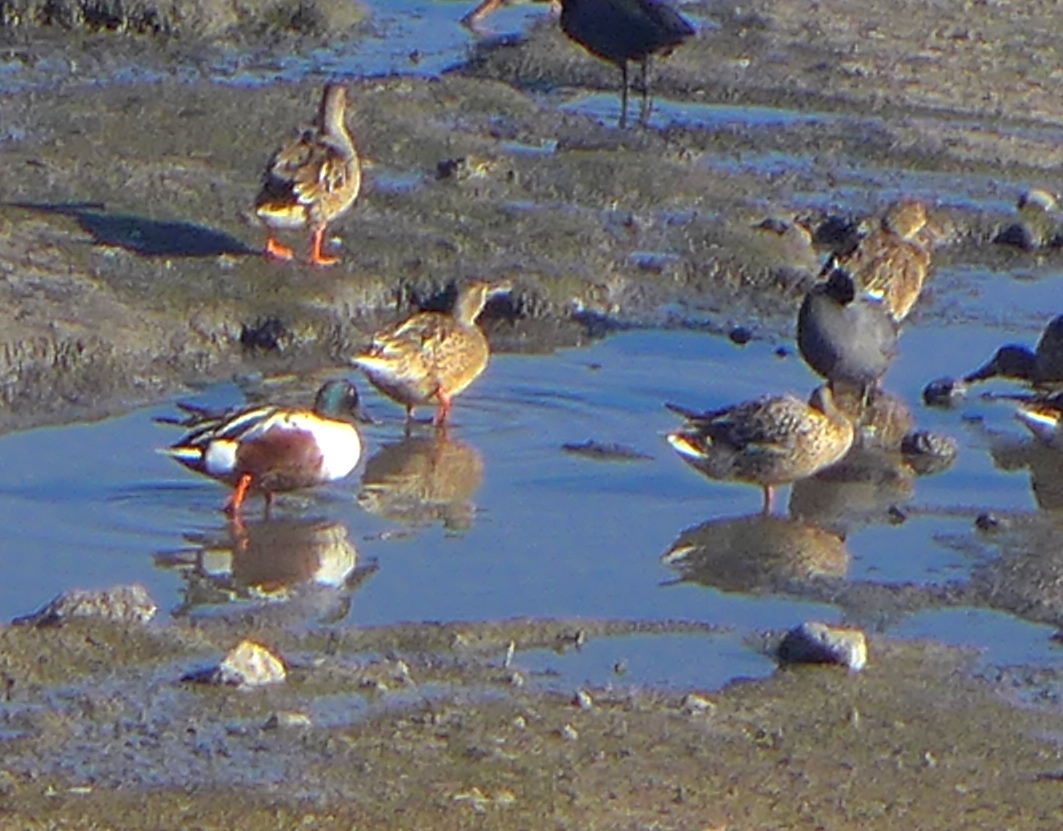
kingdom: Animalia
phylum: Chordata
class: Aves
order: Anseriformes
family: Anatidae
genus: Spatula
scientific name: Spatula clypeata
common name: Northern shoveler
